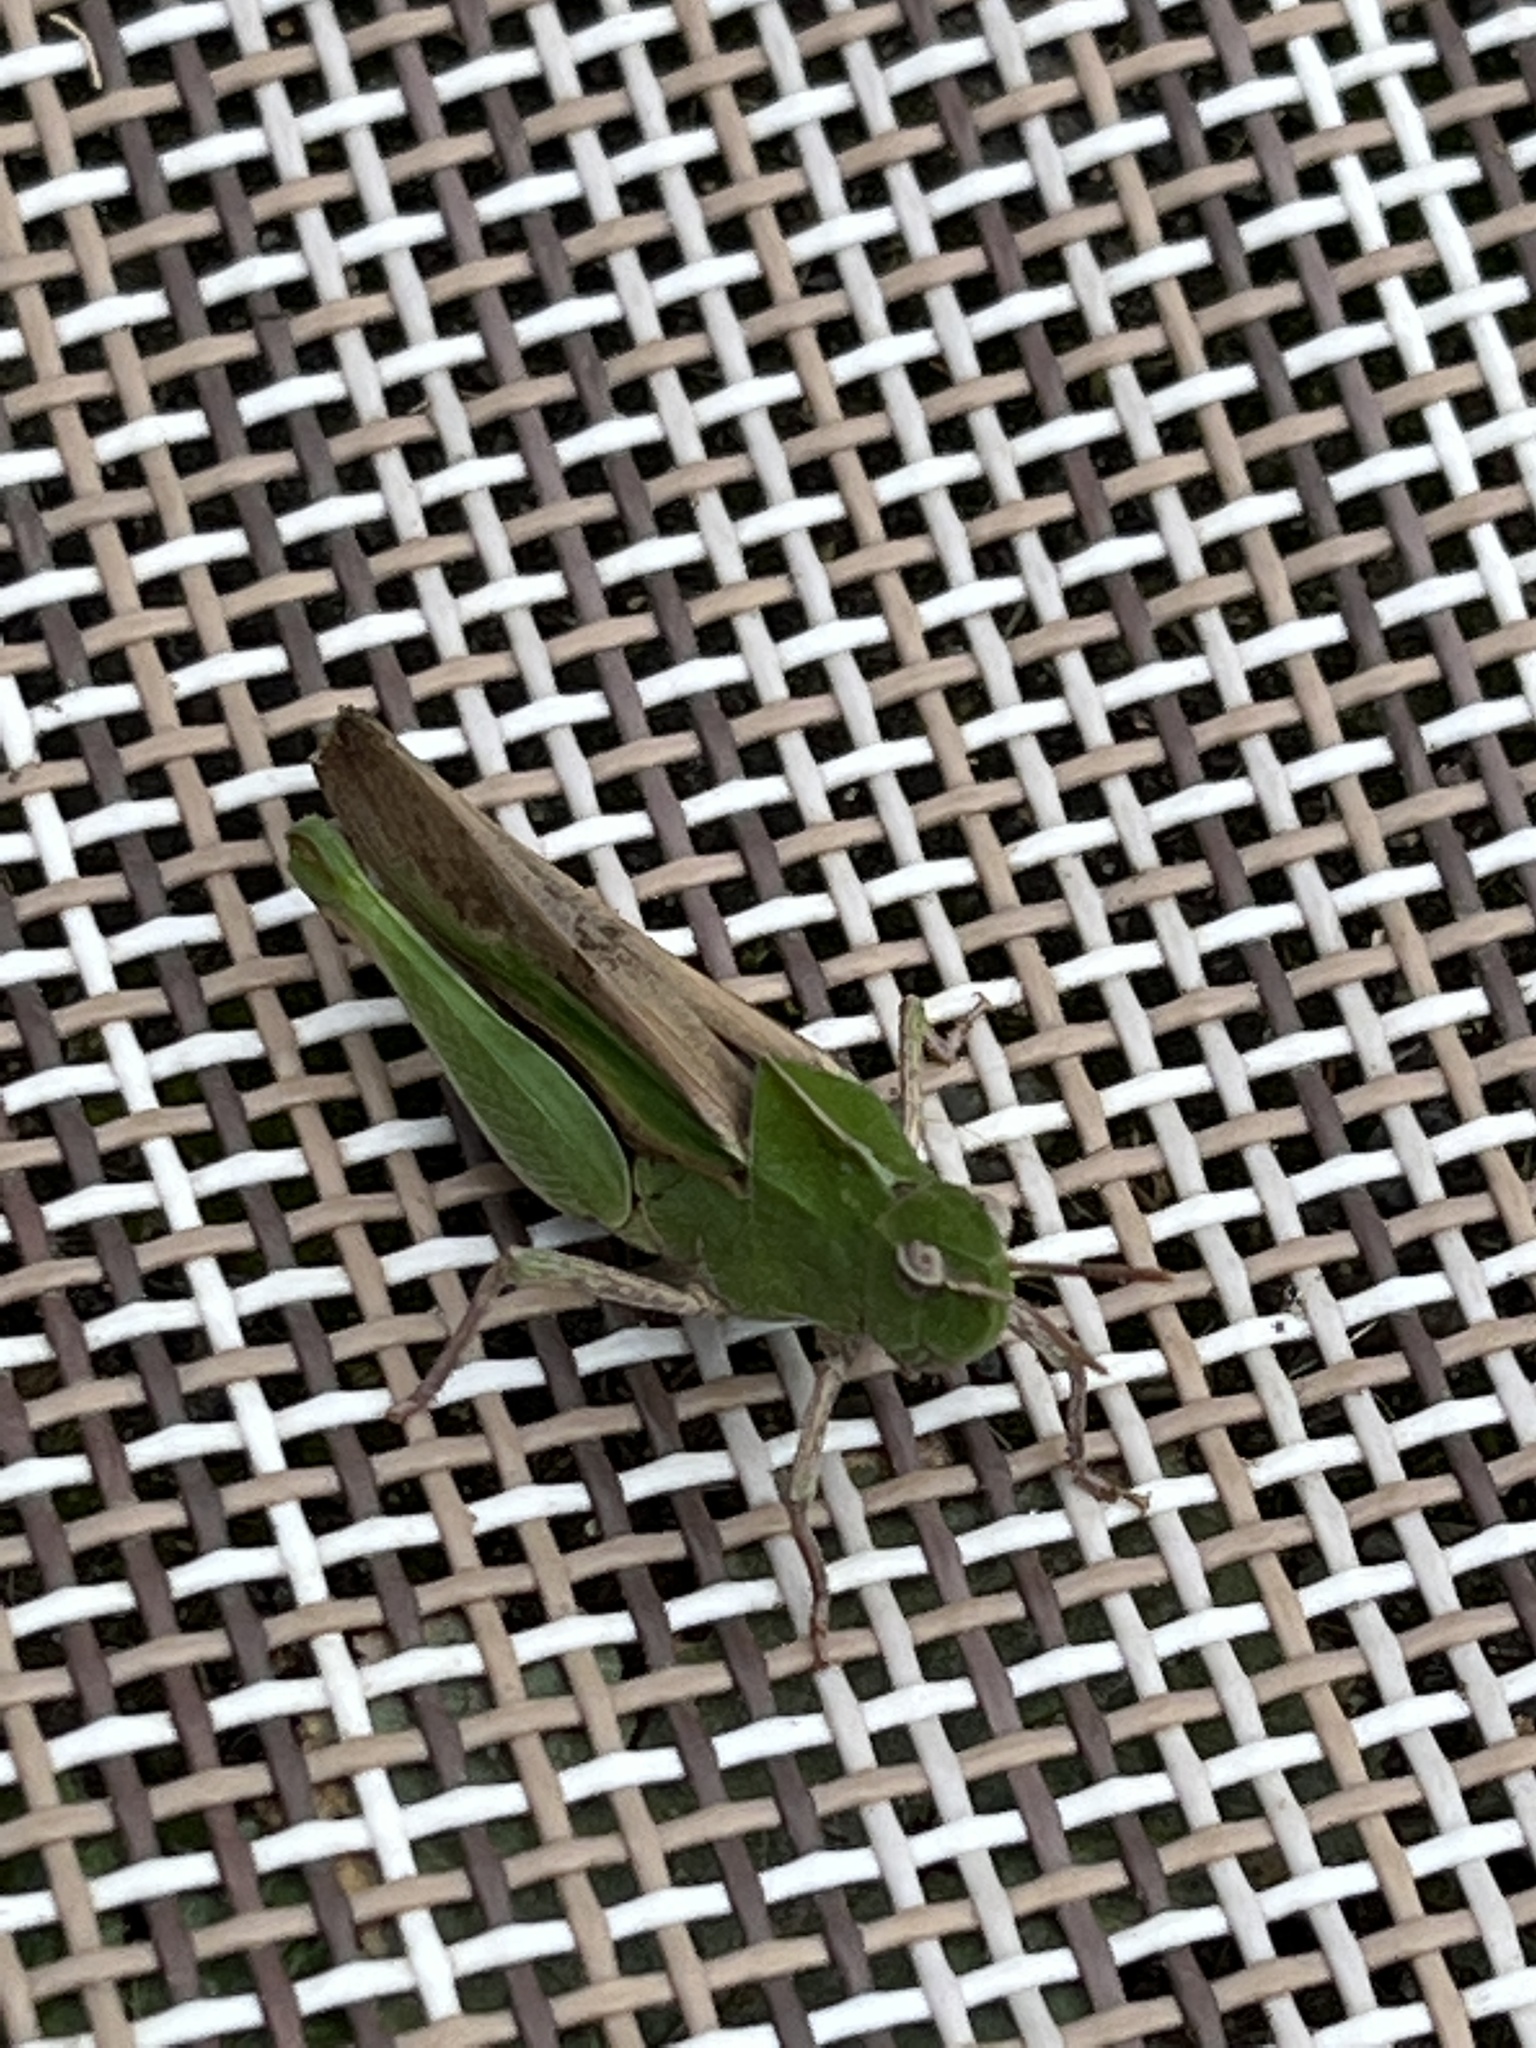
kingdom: Animalia
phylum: Arthropoda
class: Insecta
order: Orthoptera
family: Acrididae
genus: Chortophaga
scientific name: Chortophaga viridifasciata
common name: Green-striped grasshopper
